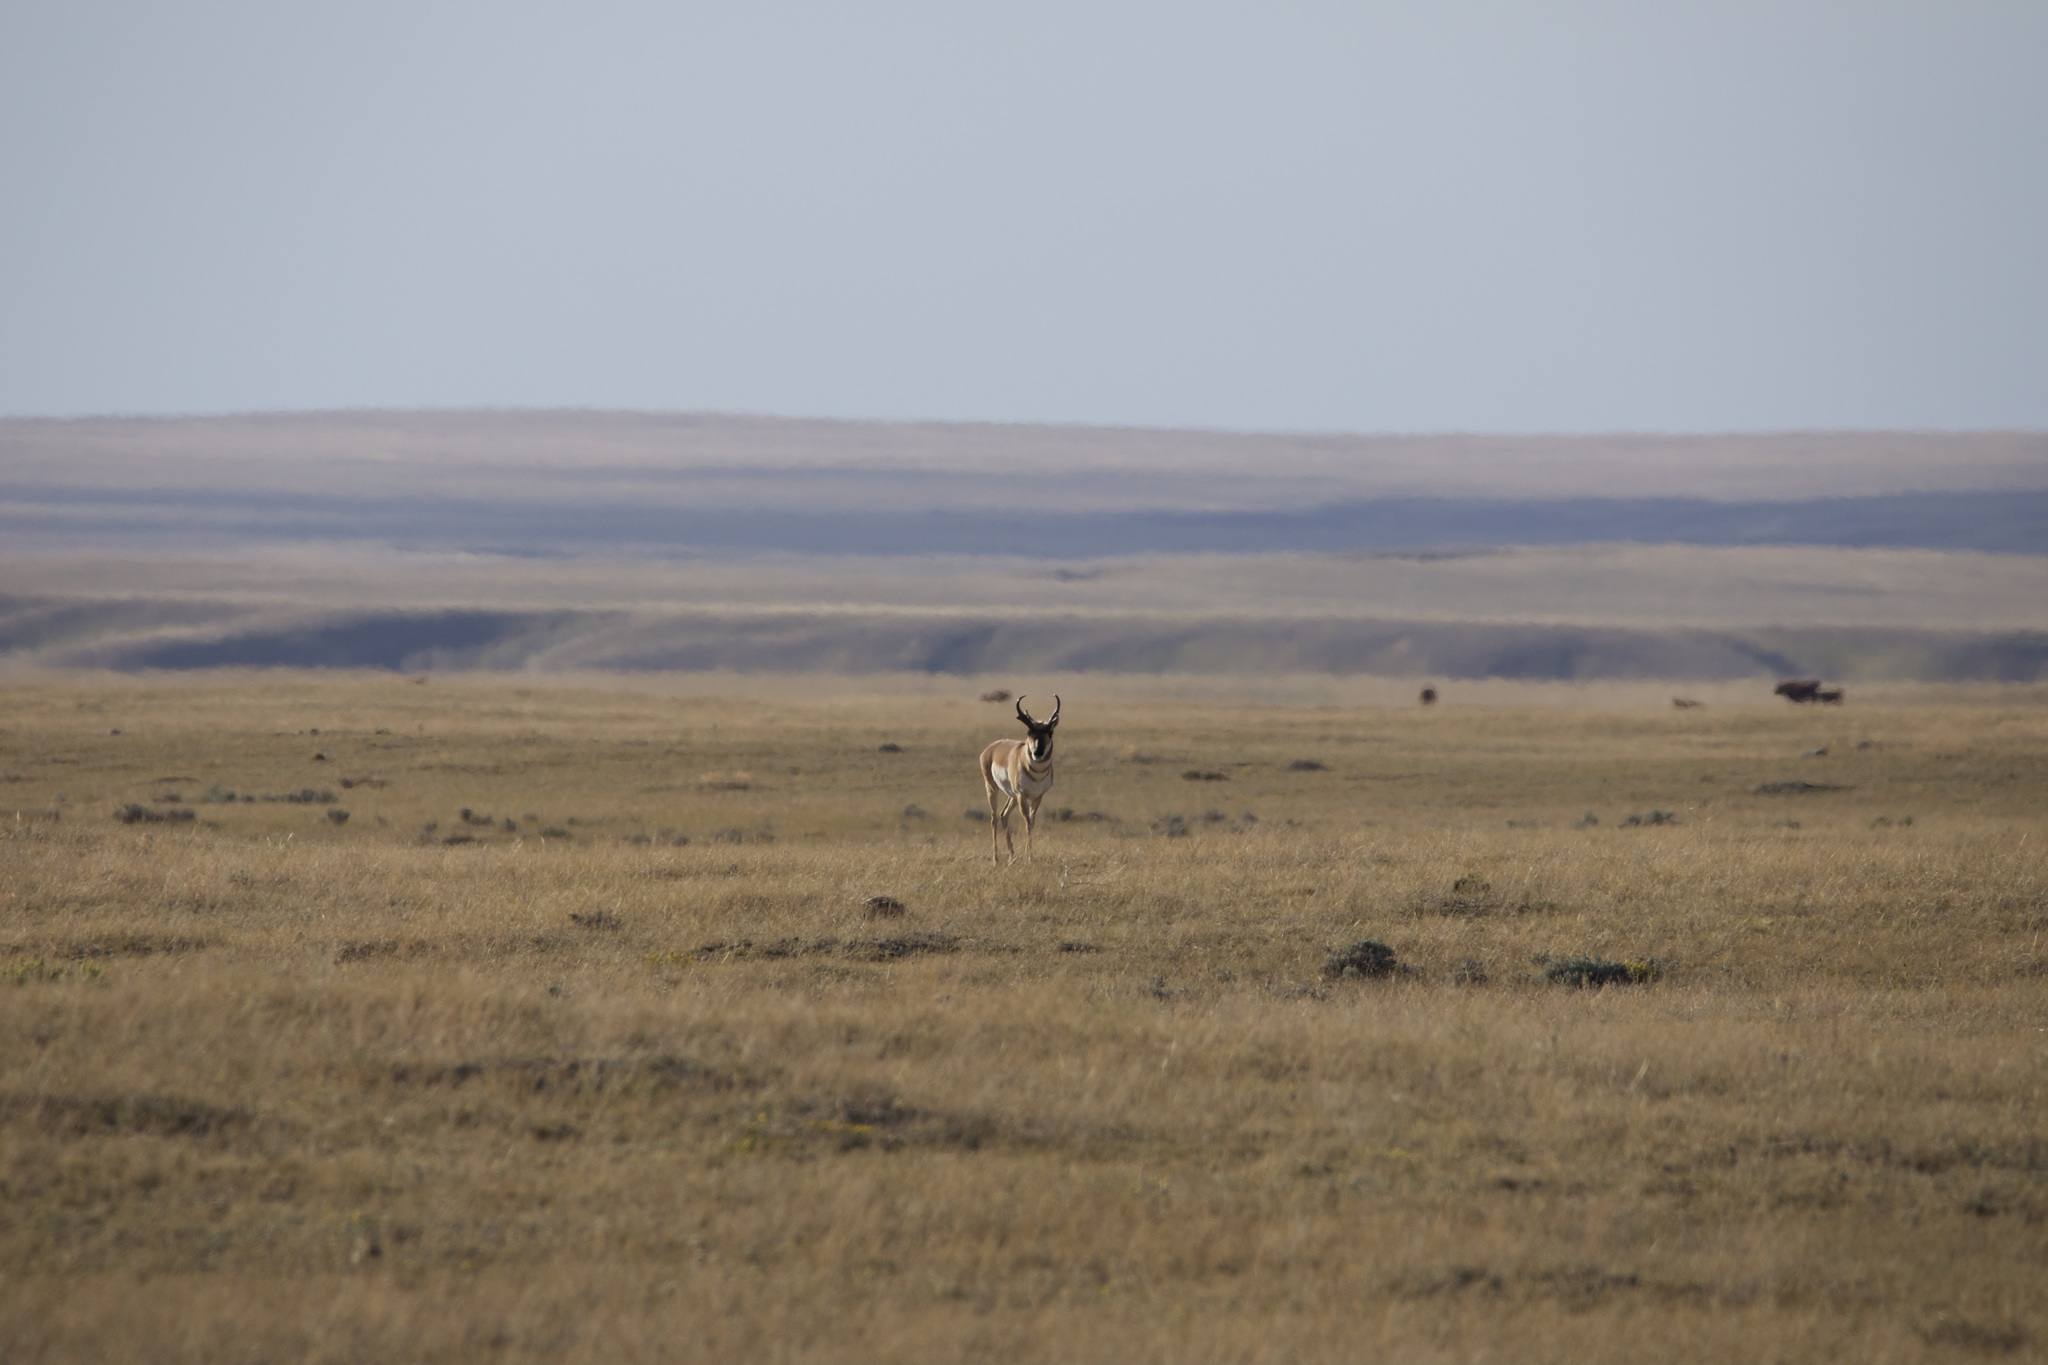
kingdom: Animalia
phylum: Chordata
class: Mammalia
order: Artiodactyla
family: Antilocapridae
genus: Antilocapra
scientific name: Antilocapra americana
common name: Pronghorn
